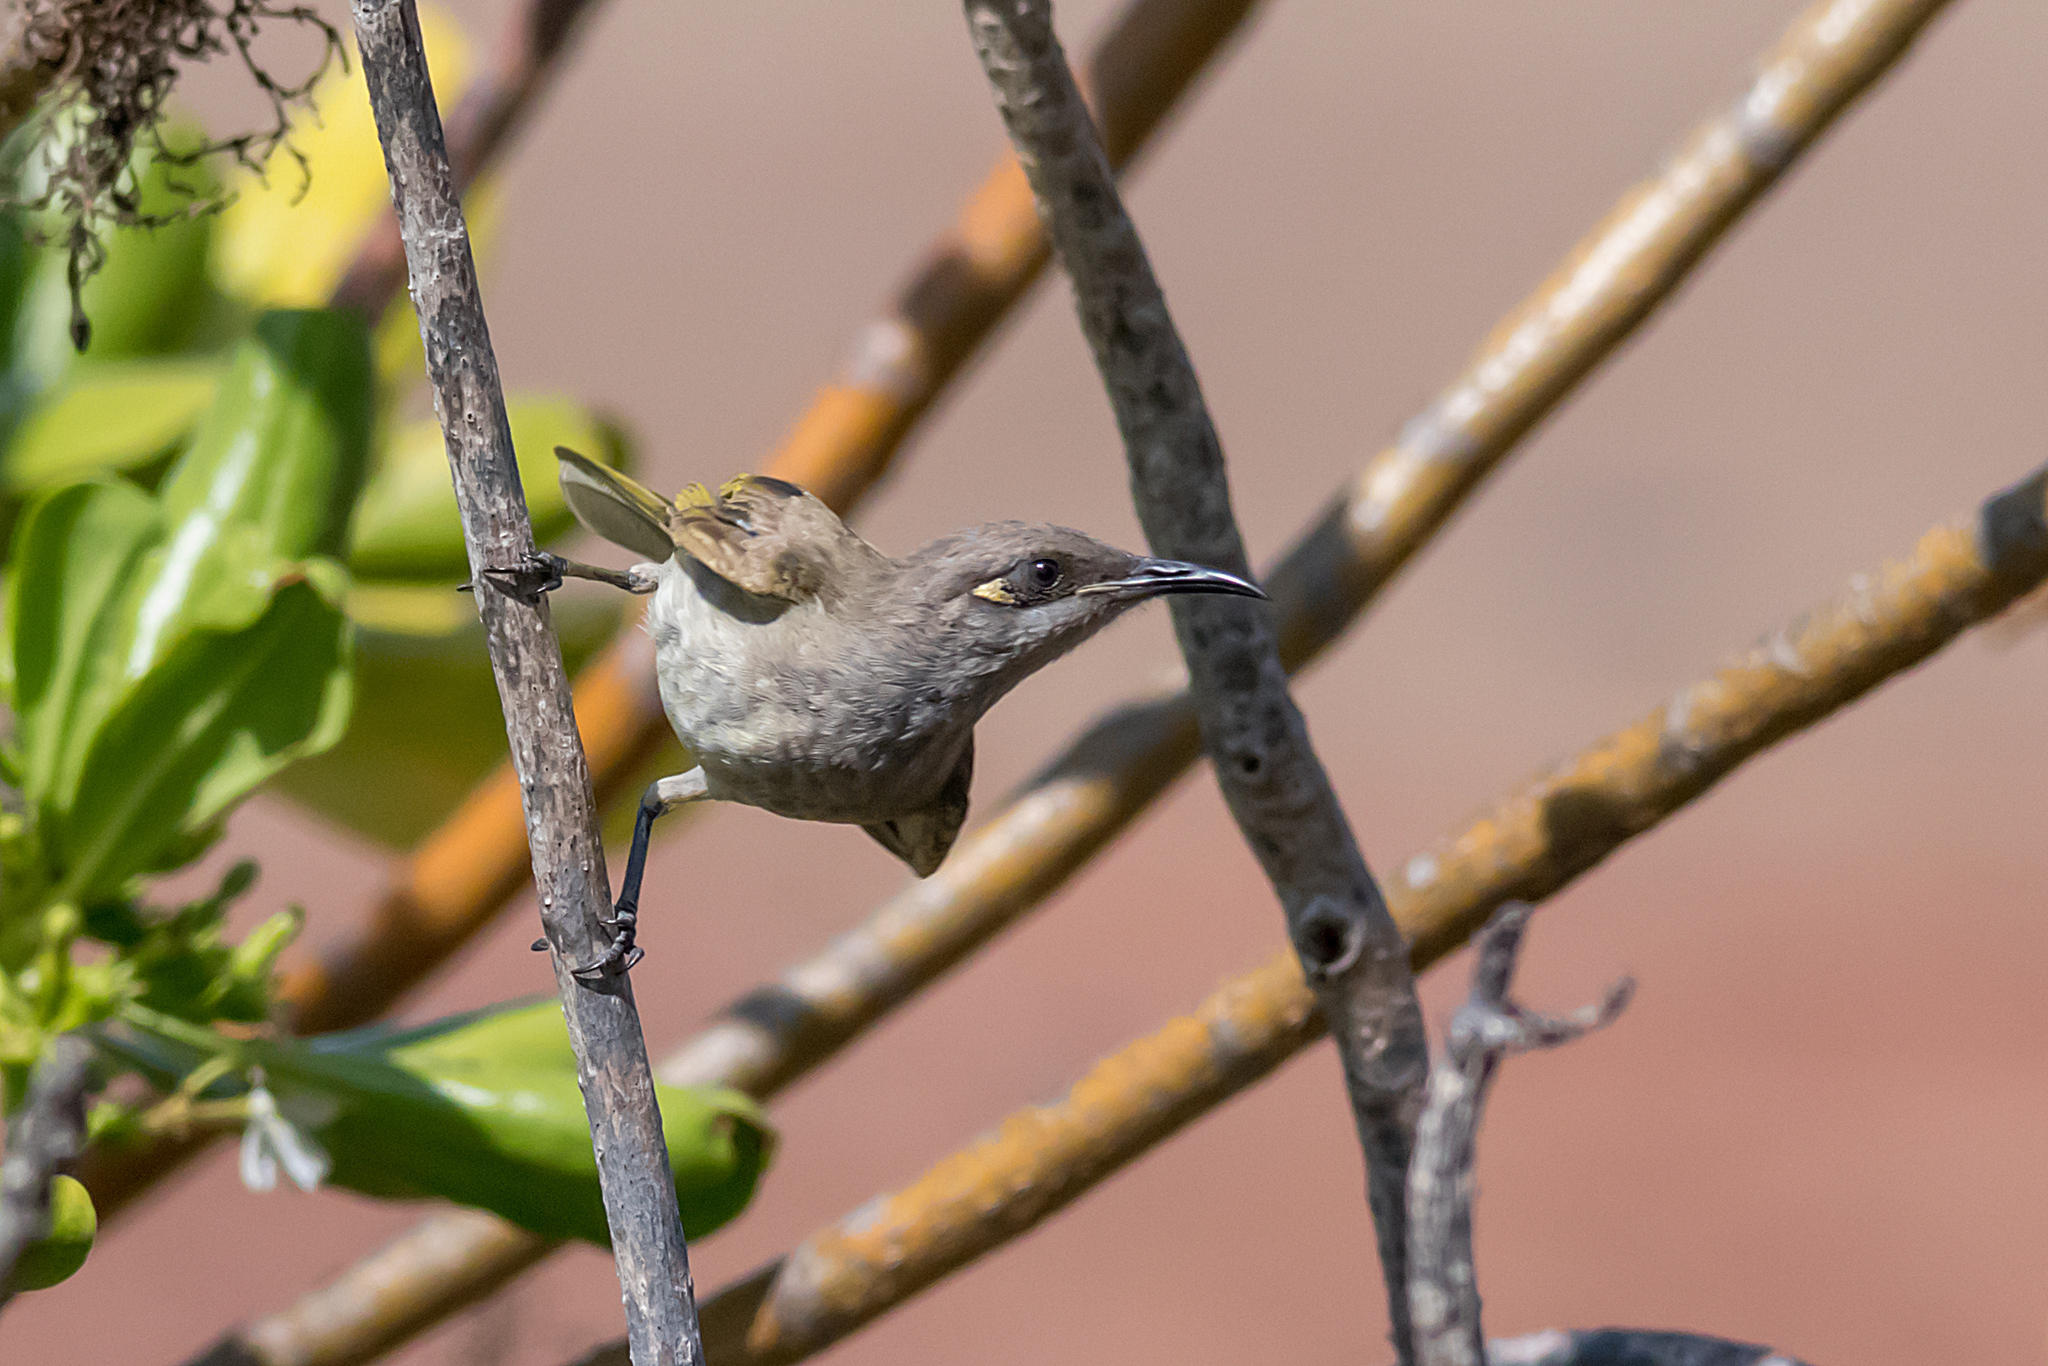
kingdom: Animalia
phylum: Chordata
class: Aves
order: Passeriformes
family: Meliphagidae
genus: Lichmera
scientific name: Lichmera indistincta
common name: Brown honeyeater
